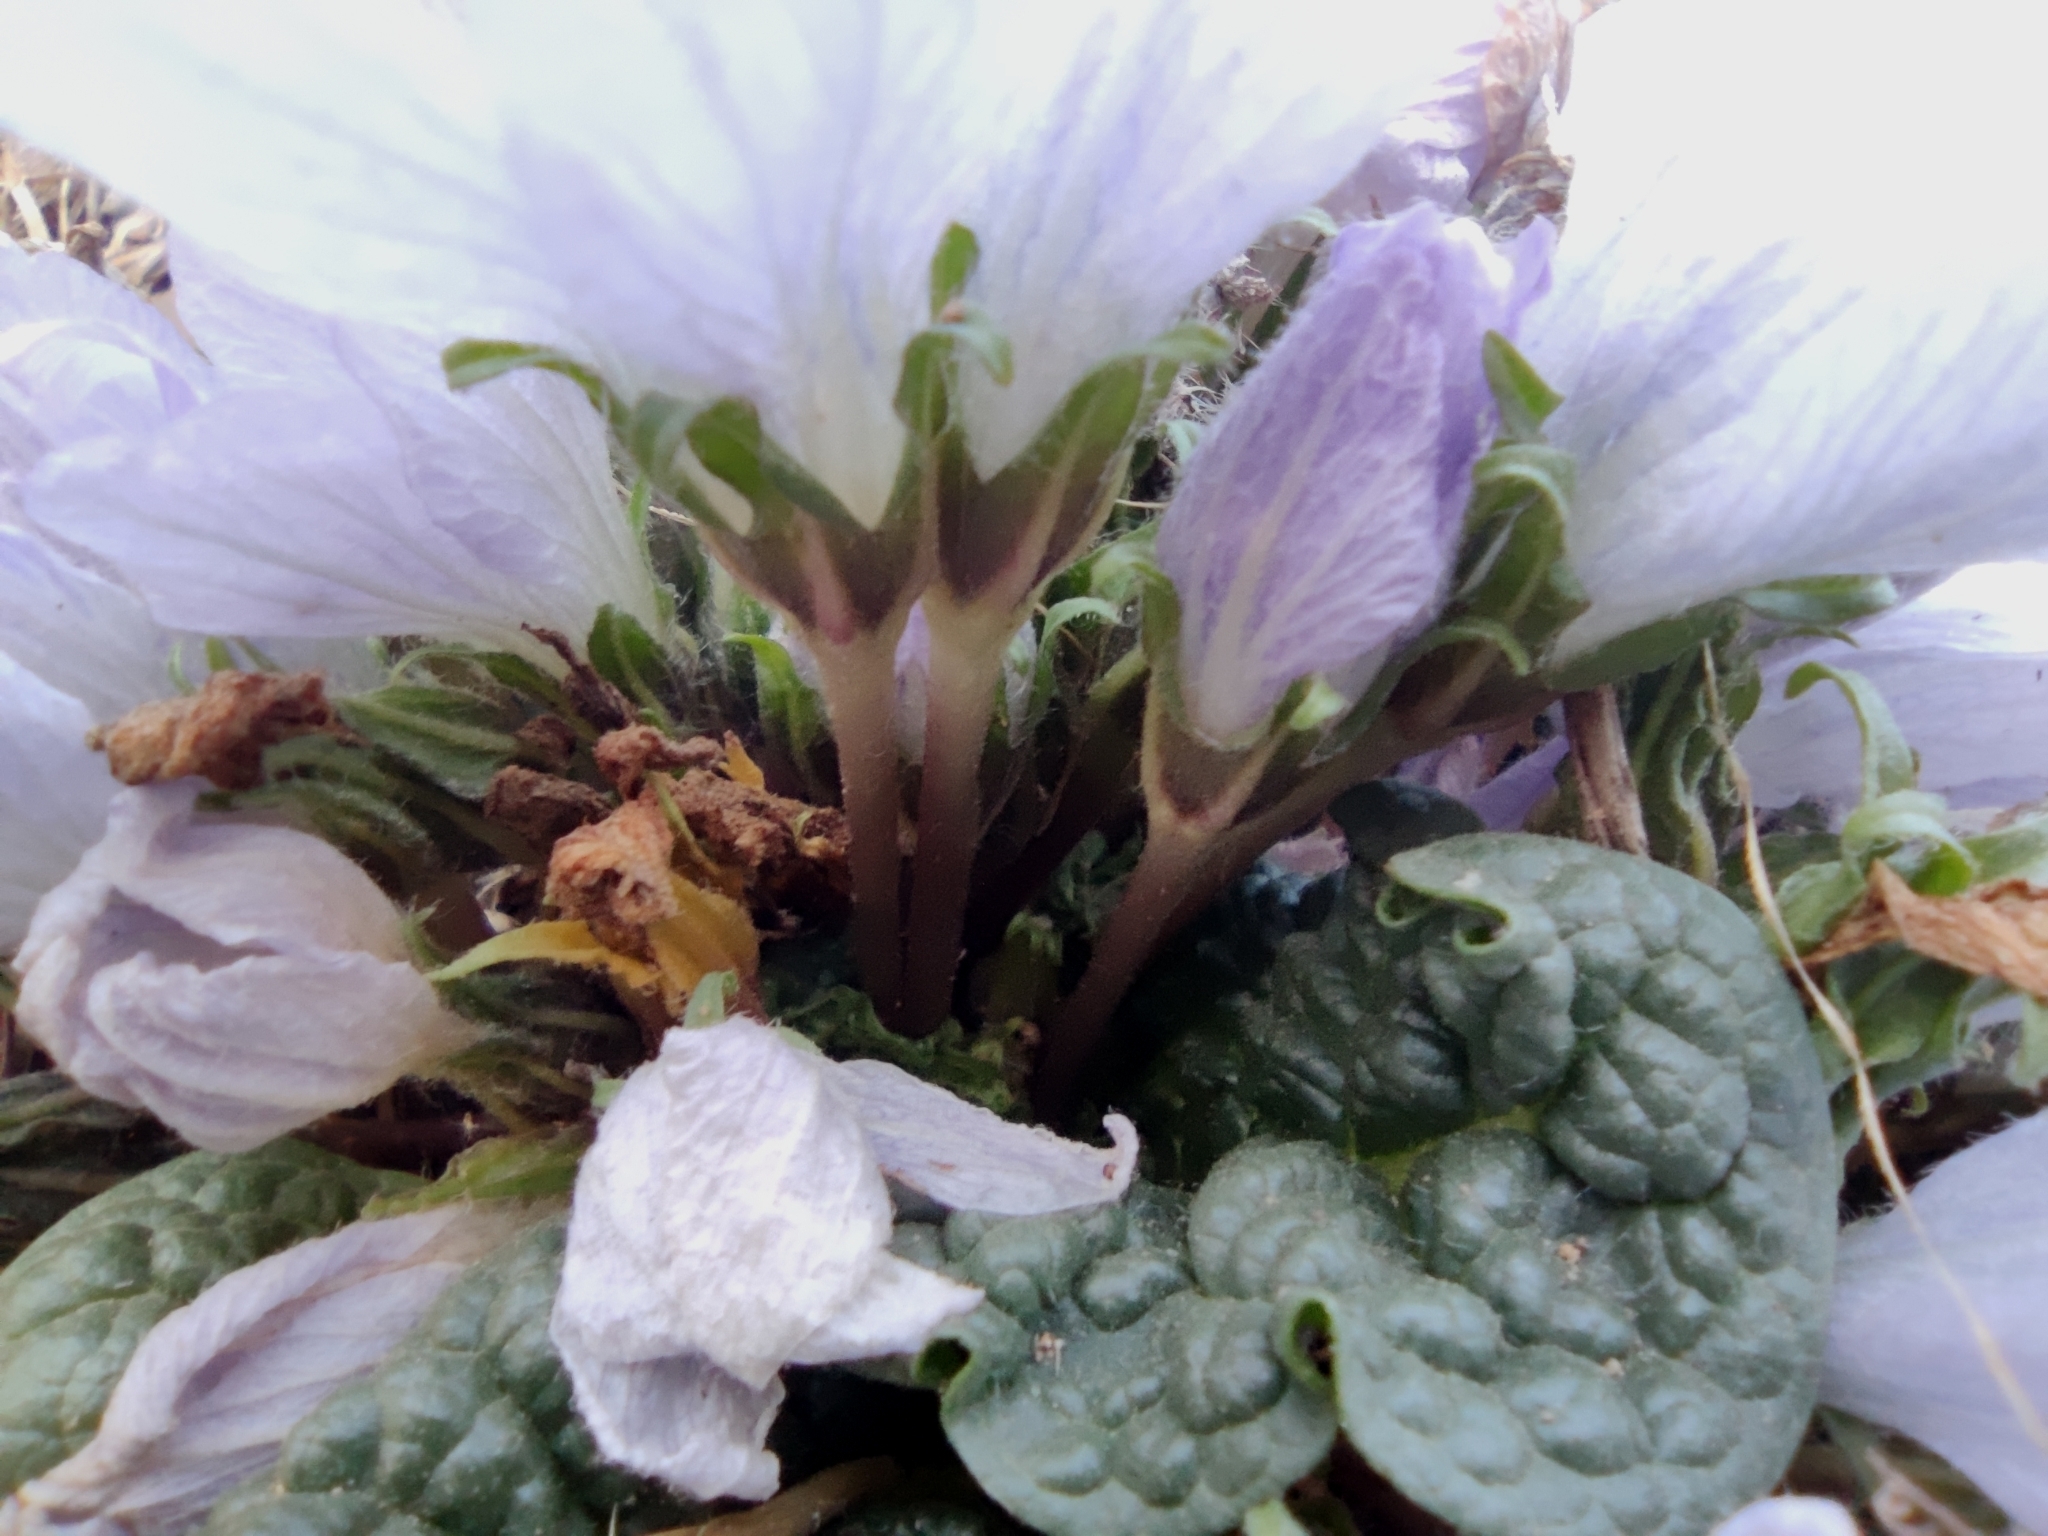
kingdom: Plantae
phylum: Tracheophyta
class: Magnoliopsida
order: Solanales
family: Solanaceae
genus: Mandragora
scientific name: Mandragora officinarum
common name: Mandrake
